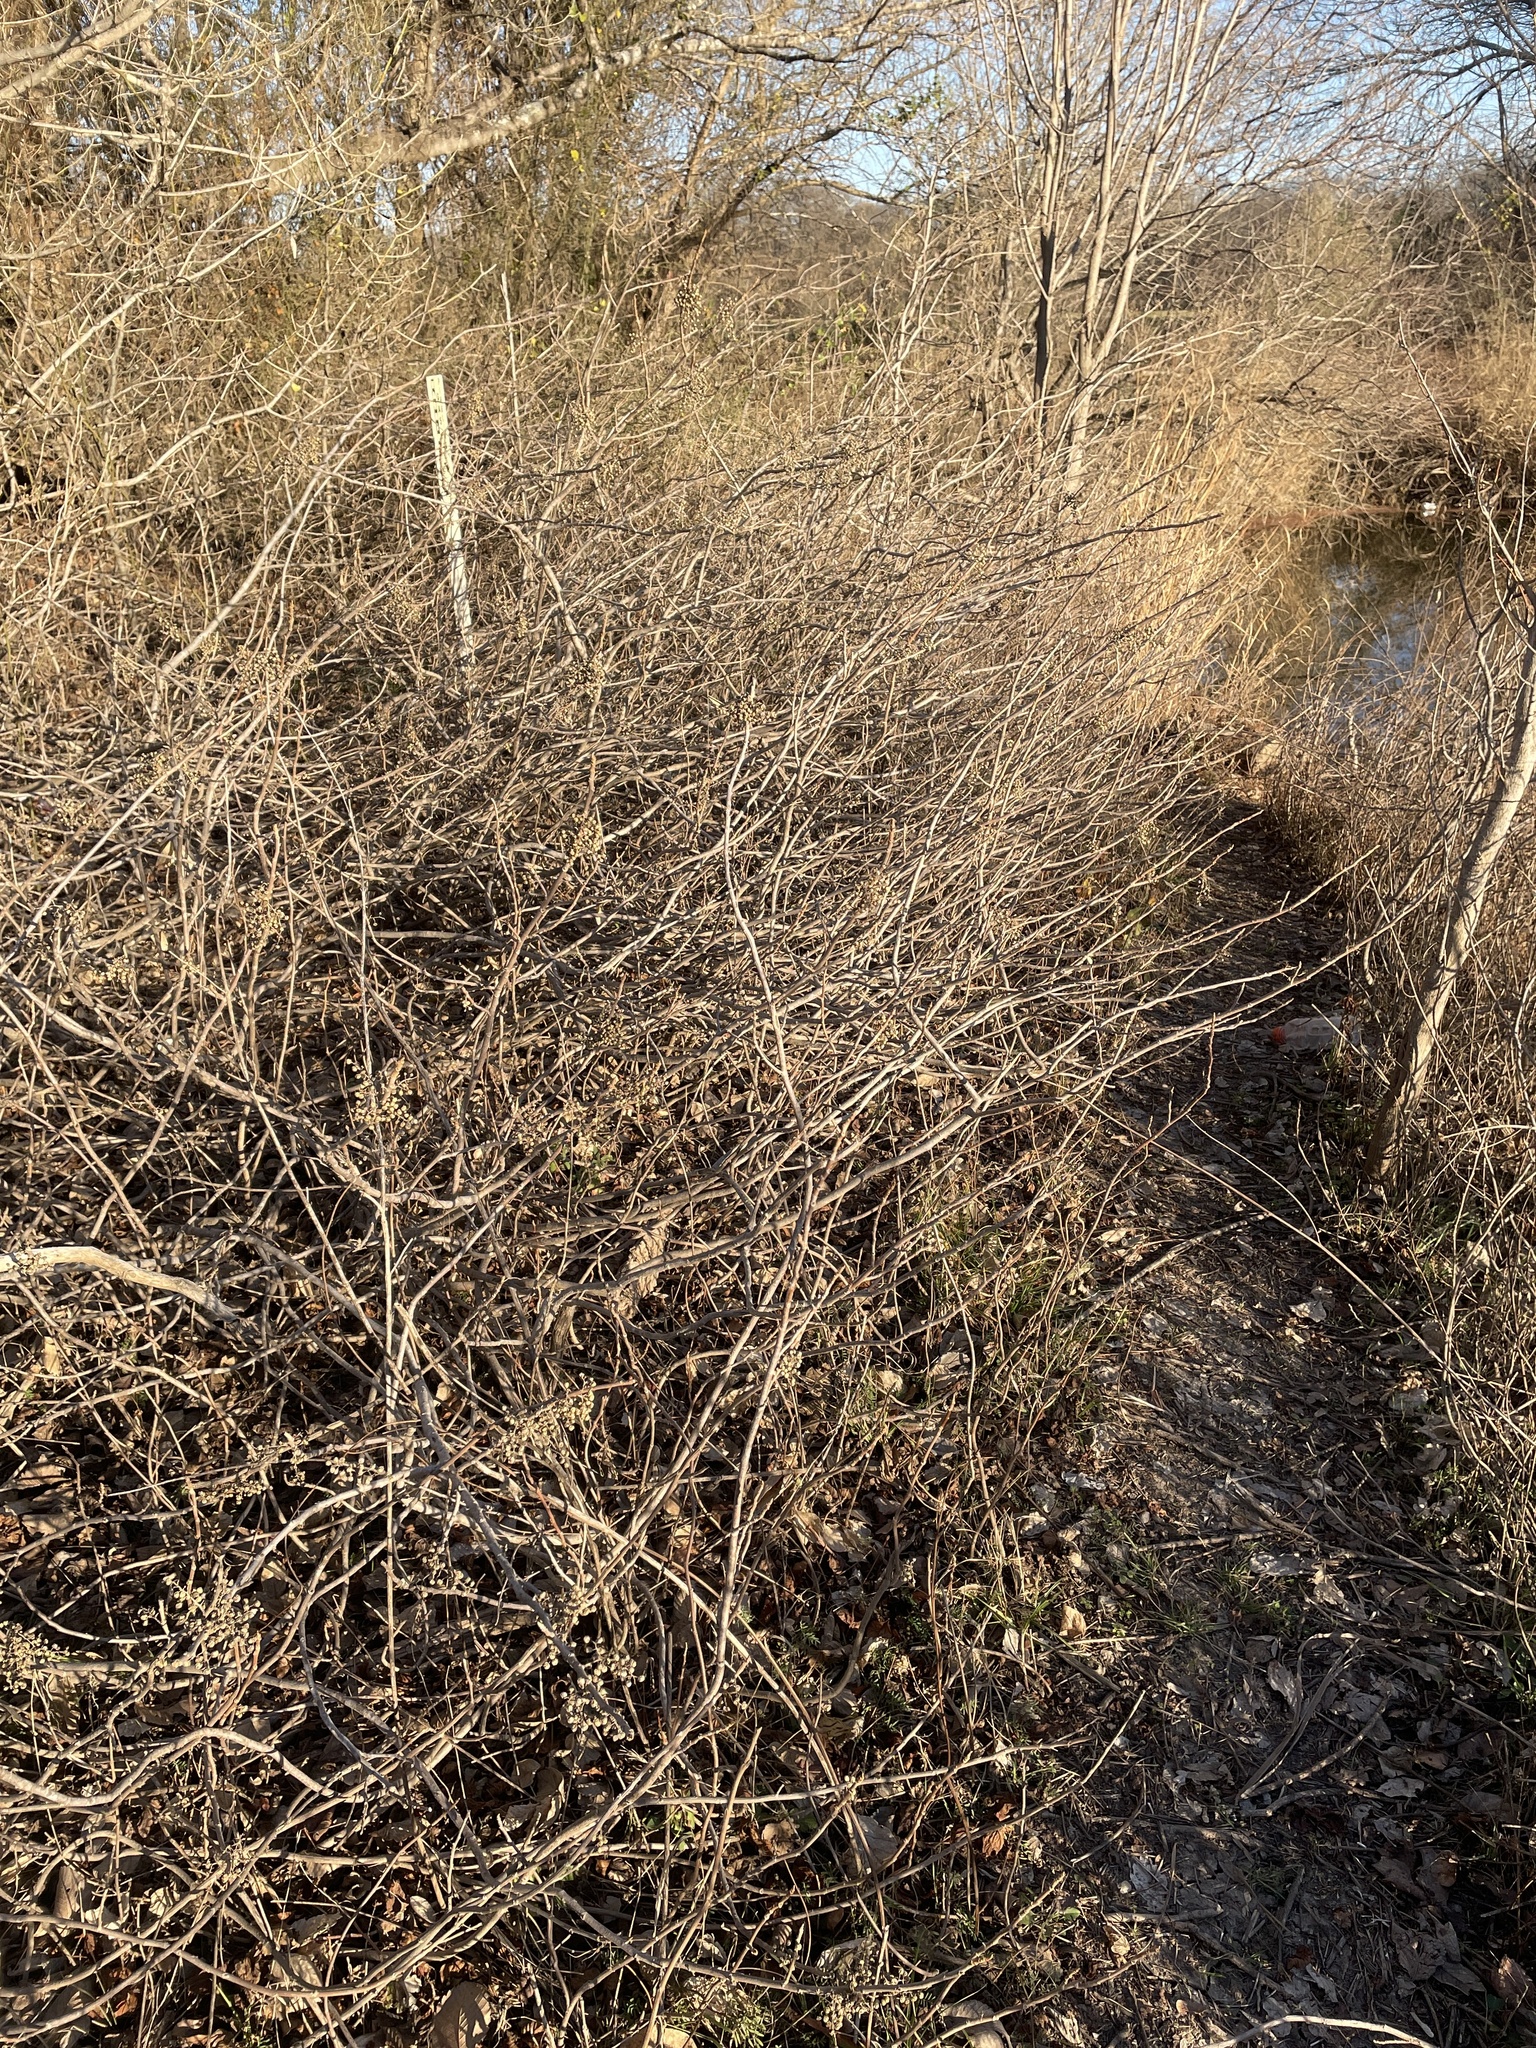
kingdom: Plantae
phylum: Tracheophyta
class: Magnoliopsida
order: Sapindales
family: Anacardiaceae
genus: Toxicodendron
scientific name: Toxicodendron radicans
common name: Poison ivy
